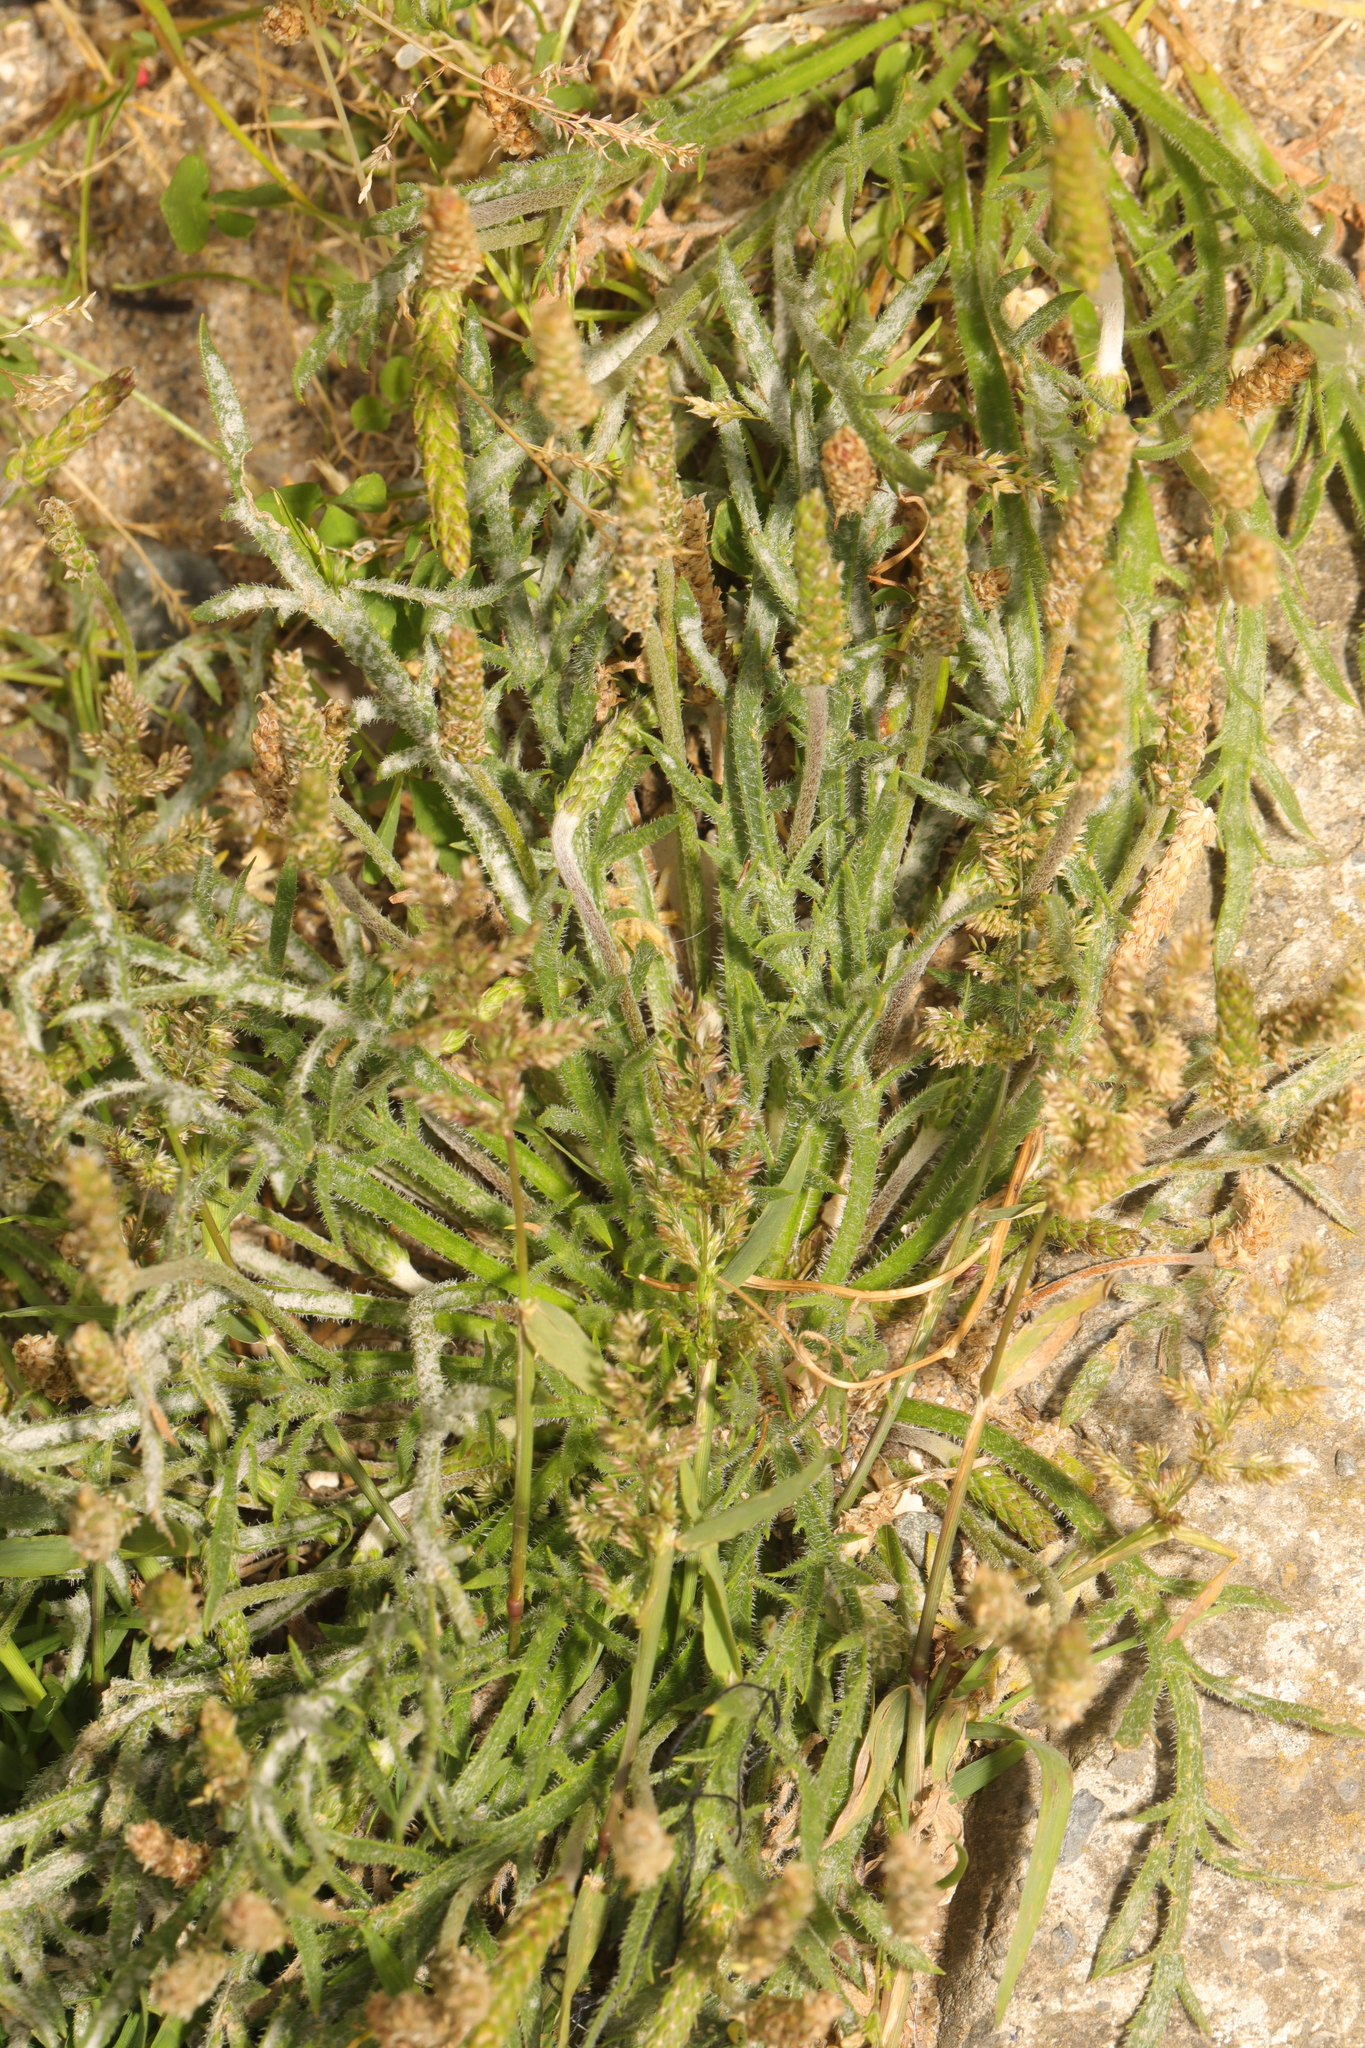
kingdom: Plantae
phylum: Tracheophyta
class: Magnoliopsida
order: Lamiales
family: Plantaginaceae
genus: Plantago
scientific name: Plantago coronopus
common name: Buck's-horn plantain
